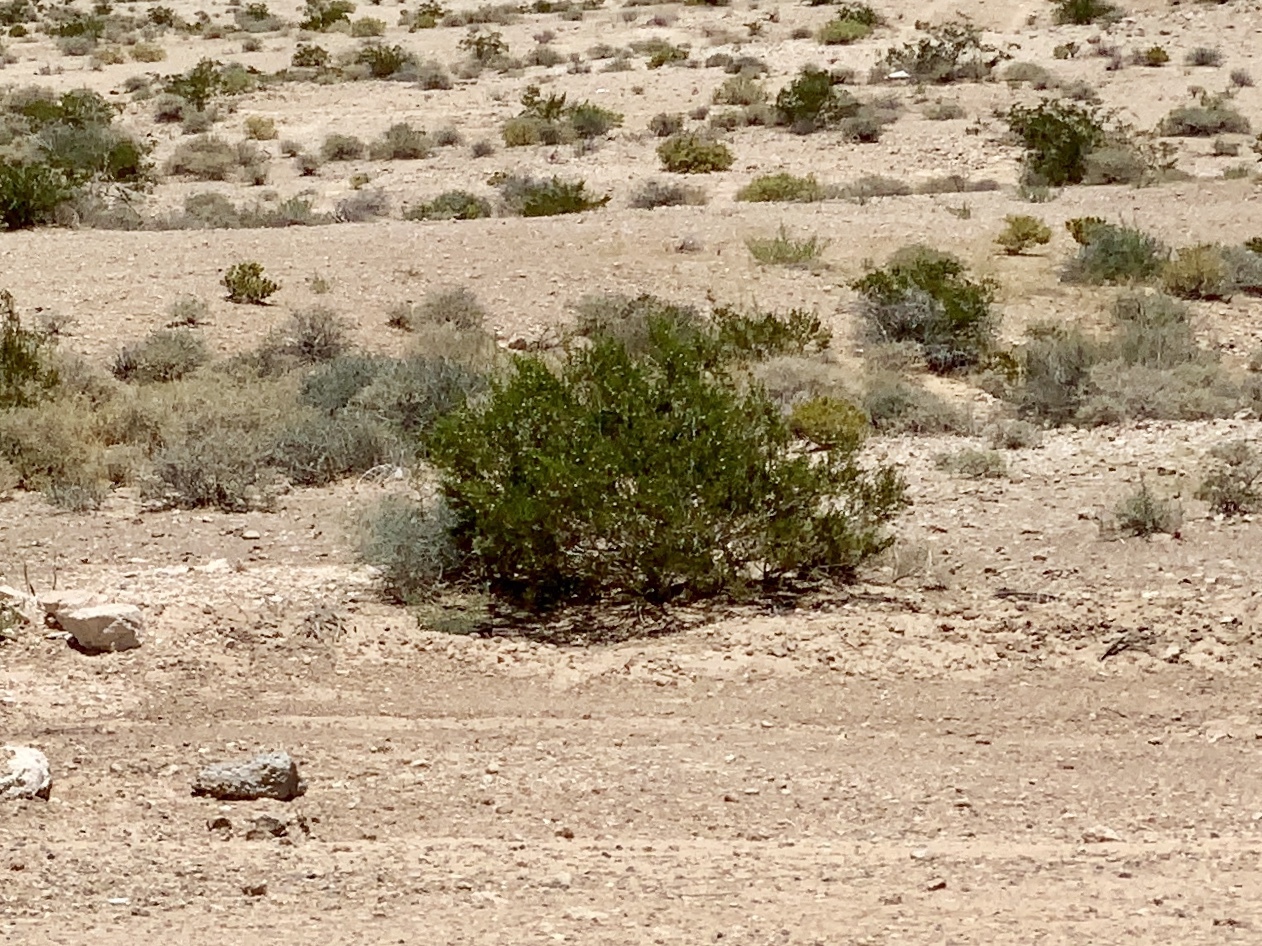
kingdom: Plantae
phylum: Tracheophyta
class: Magnoliopsida
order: Zygophyllales
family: Zygophyllaceae
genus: Larrea
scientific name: Larrea tridentata
